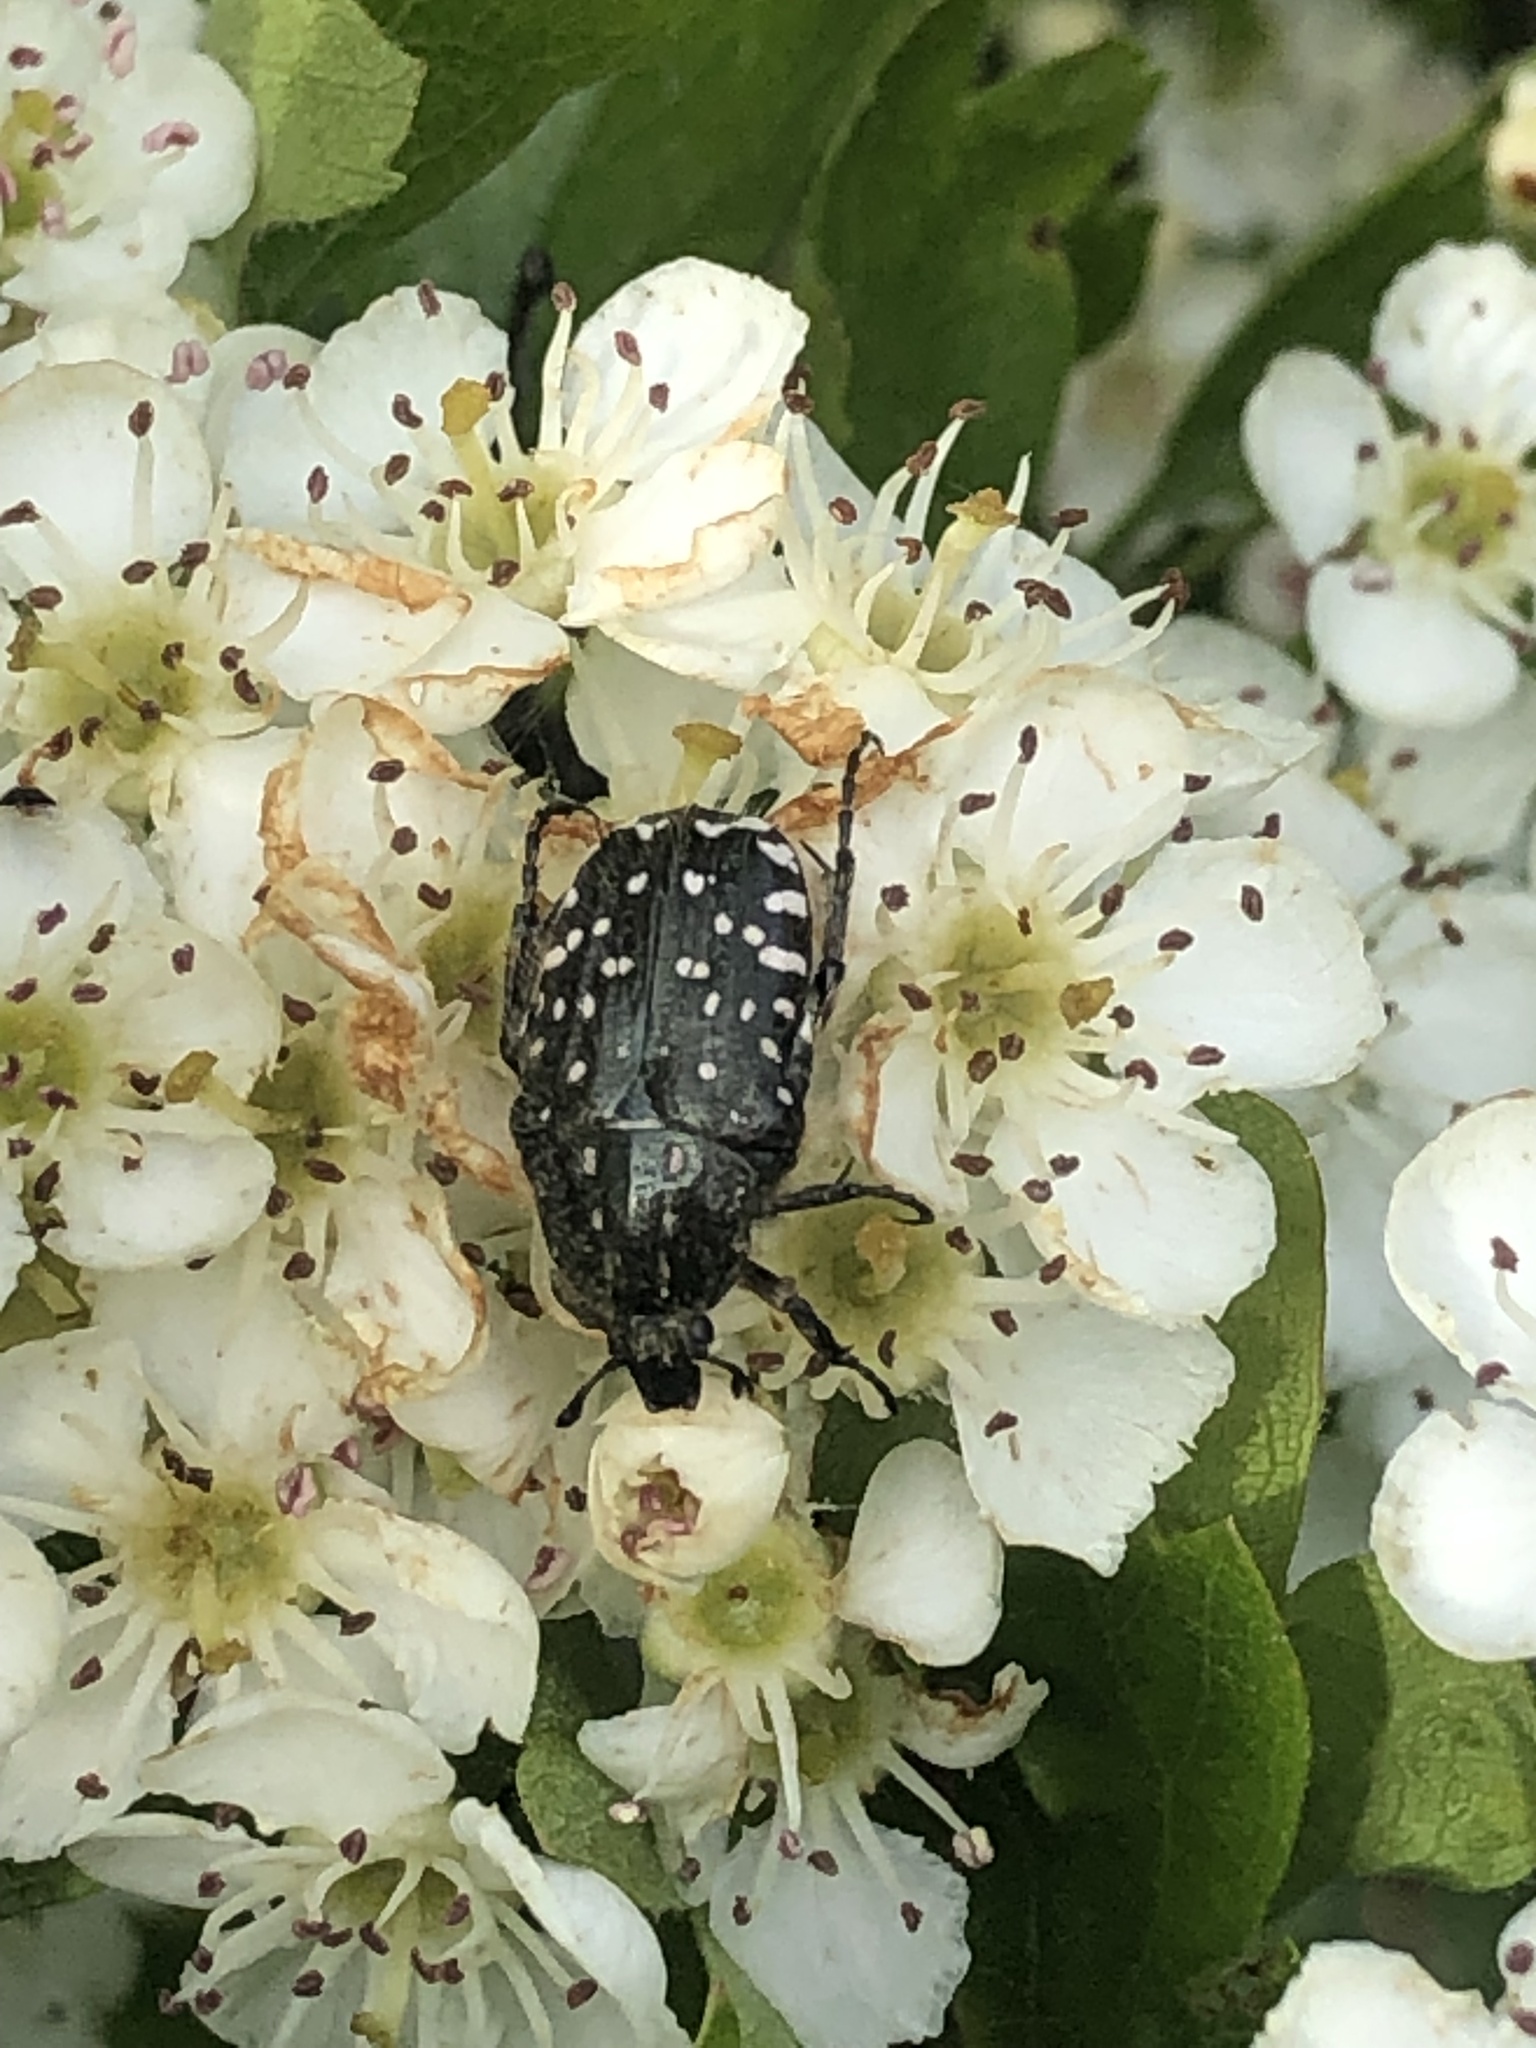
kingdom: Animalia
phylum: Arthropoda
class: Insecta
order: Coleoptera
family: Scarabaeidae
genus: Oxythyrea
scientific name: Oxythyrea funesta
